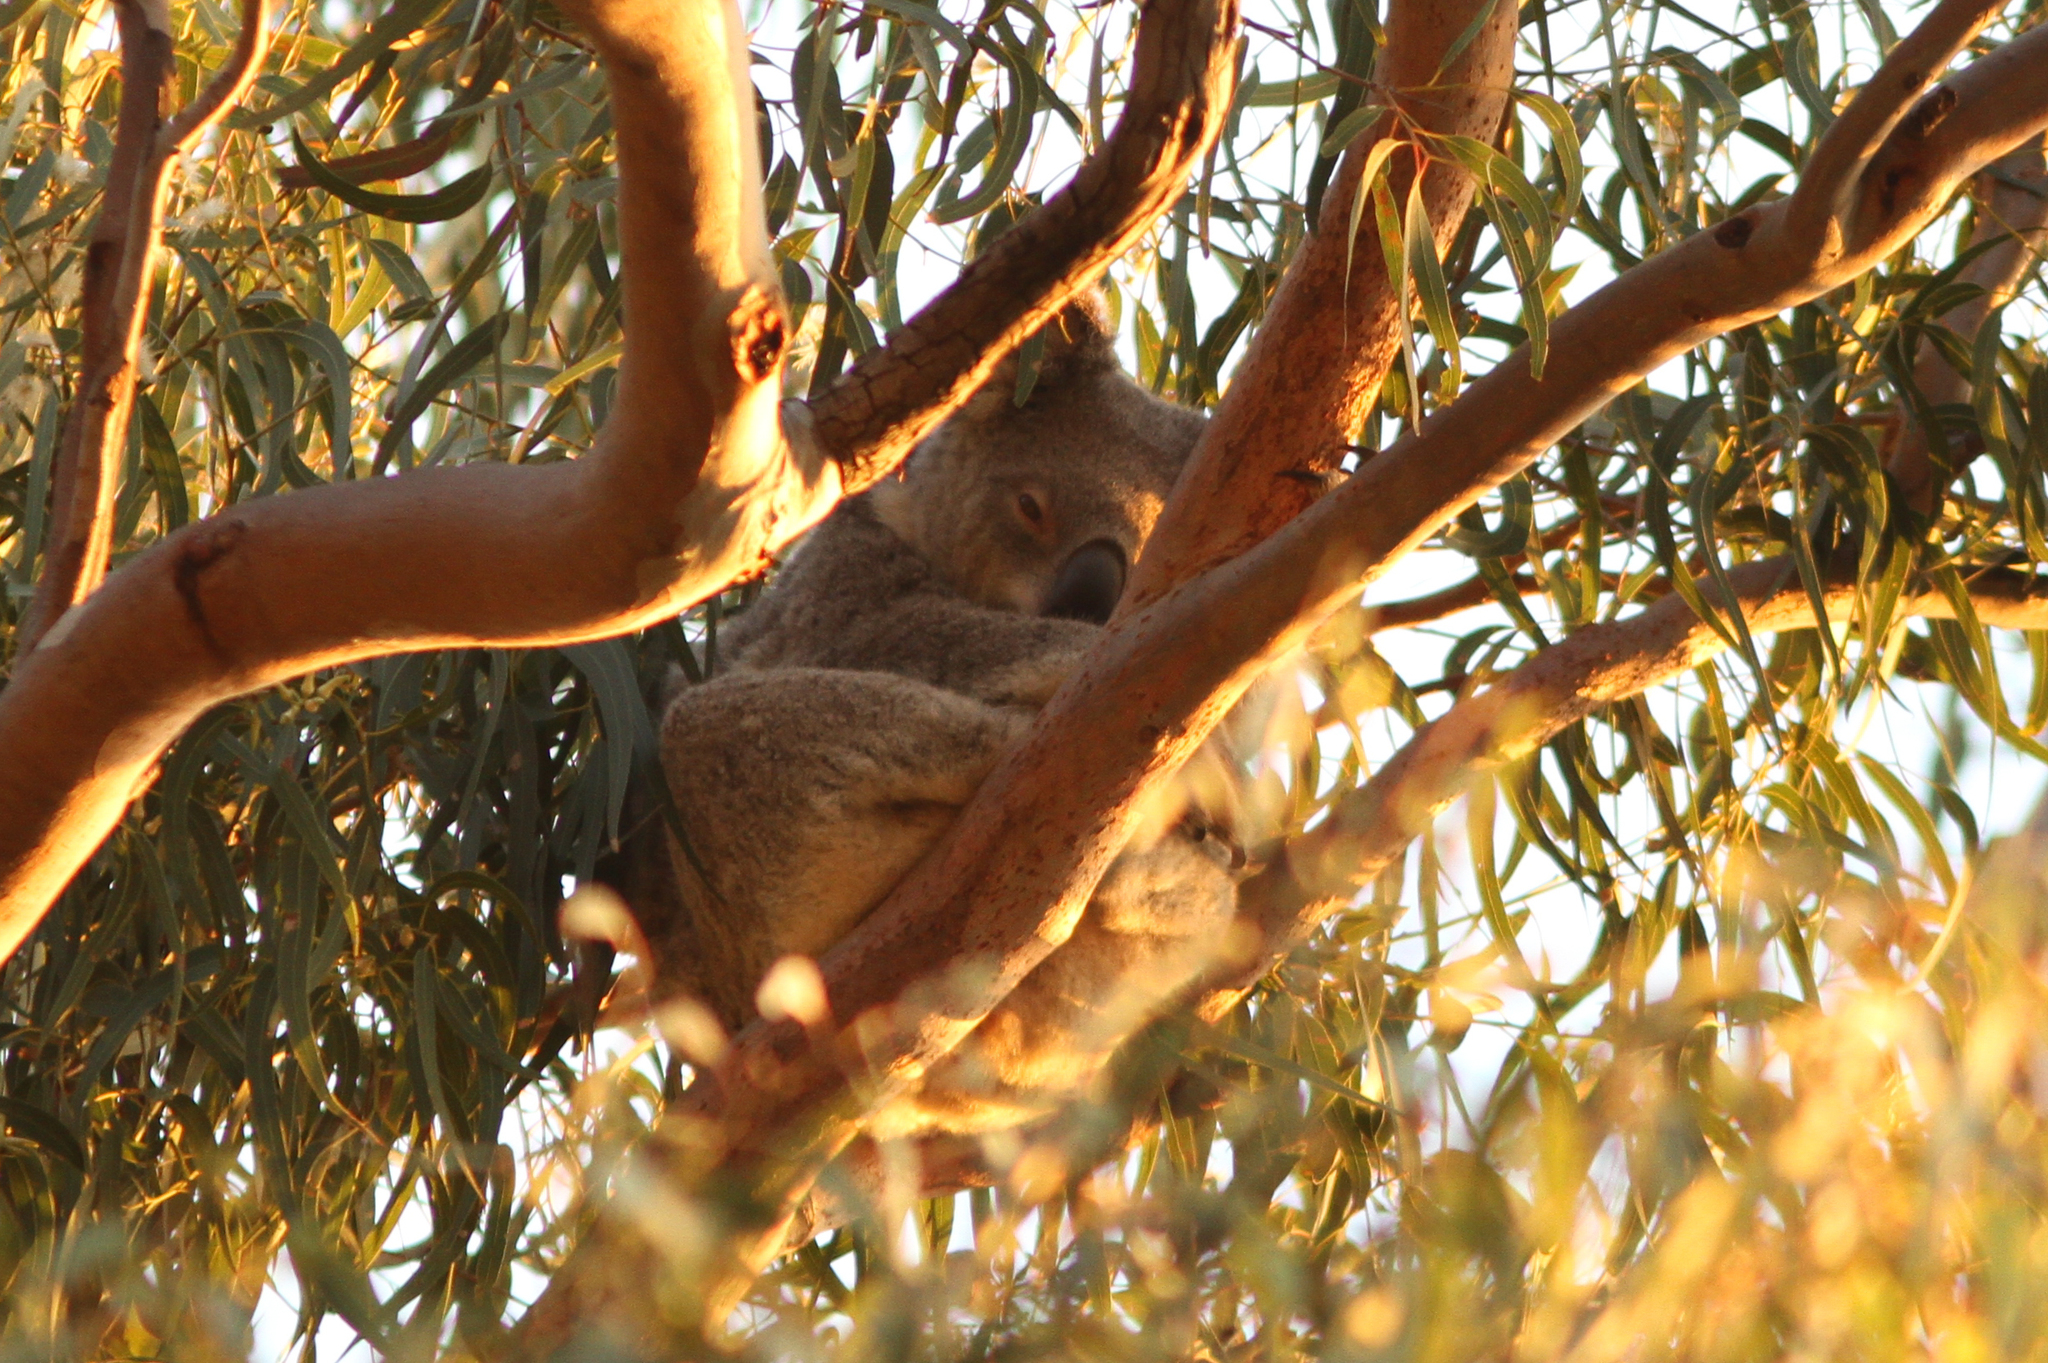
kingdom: Animalia
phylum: Chordata
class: Mammalia
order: Diprotodontia
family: Phascolarctidae
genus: Phascolarctos
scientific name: Phascolarctos cinereus
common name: Koala
